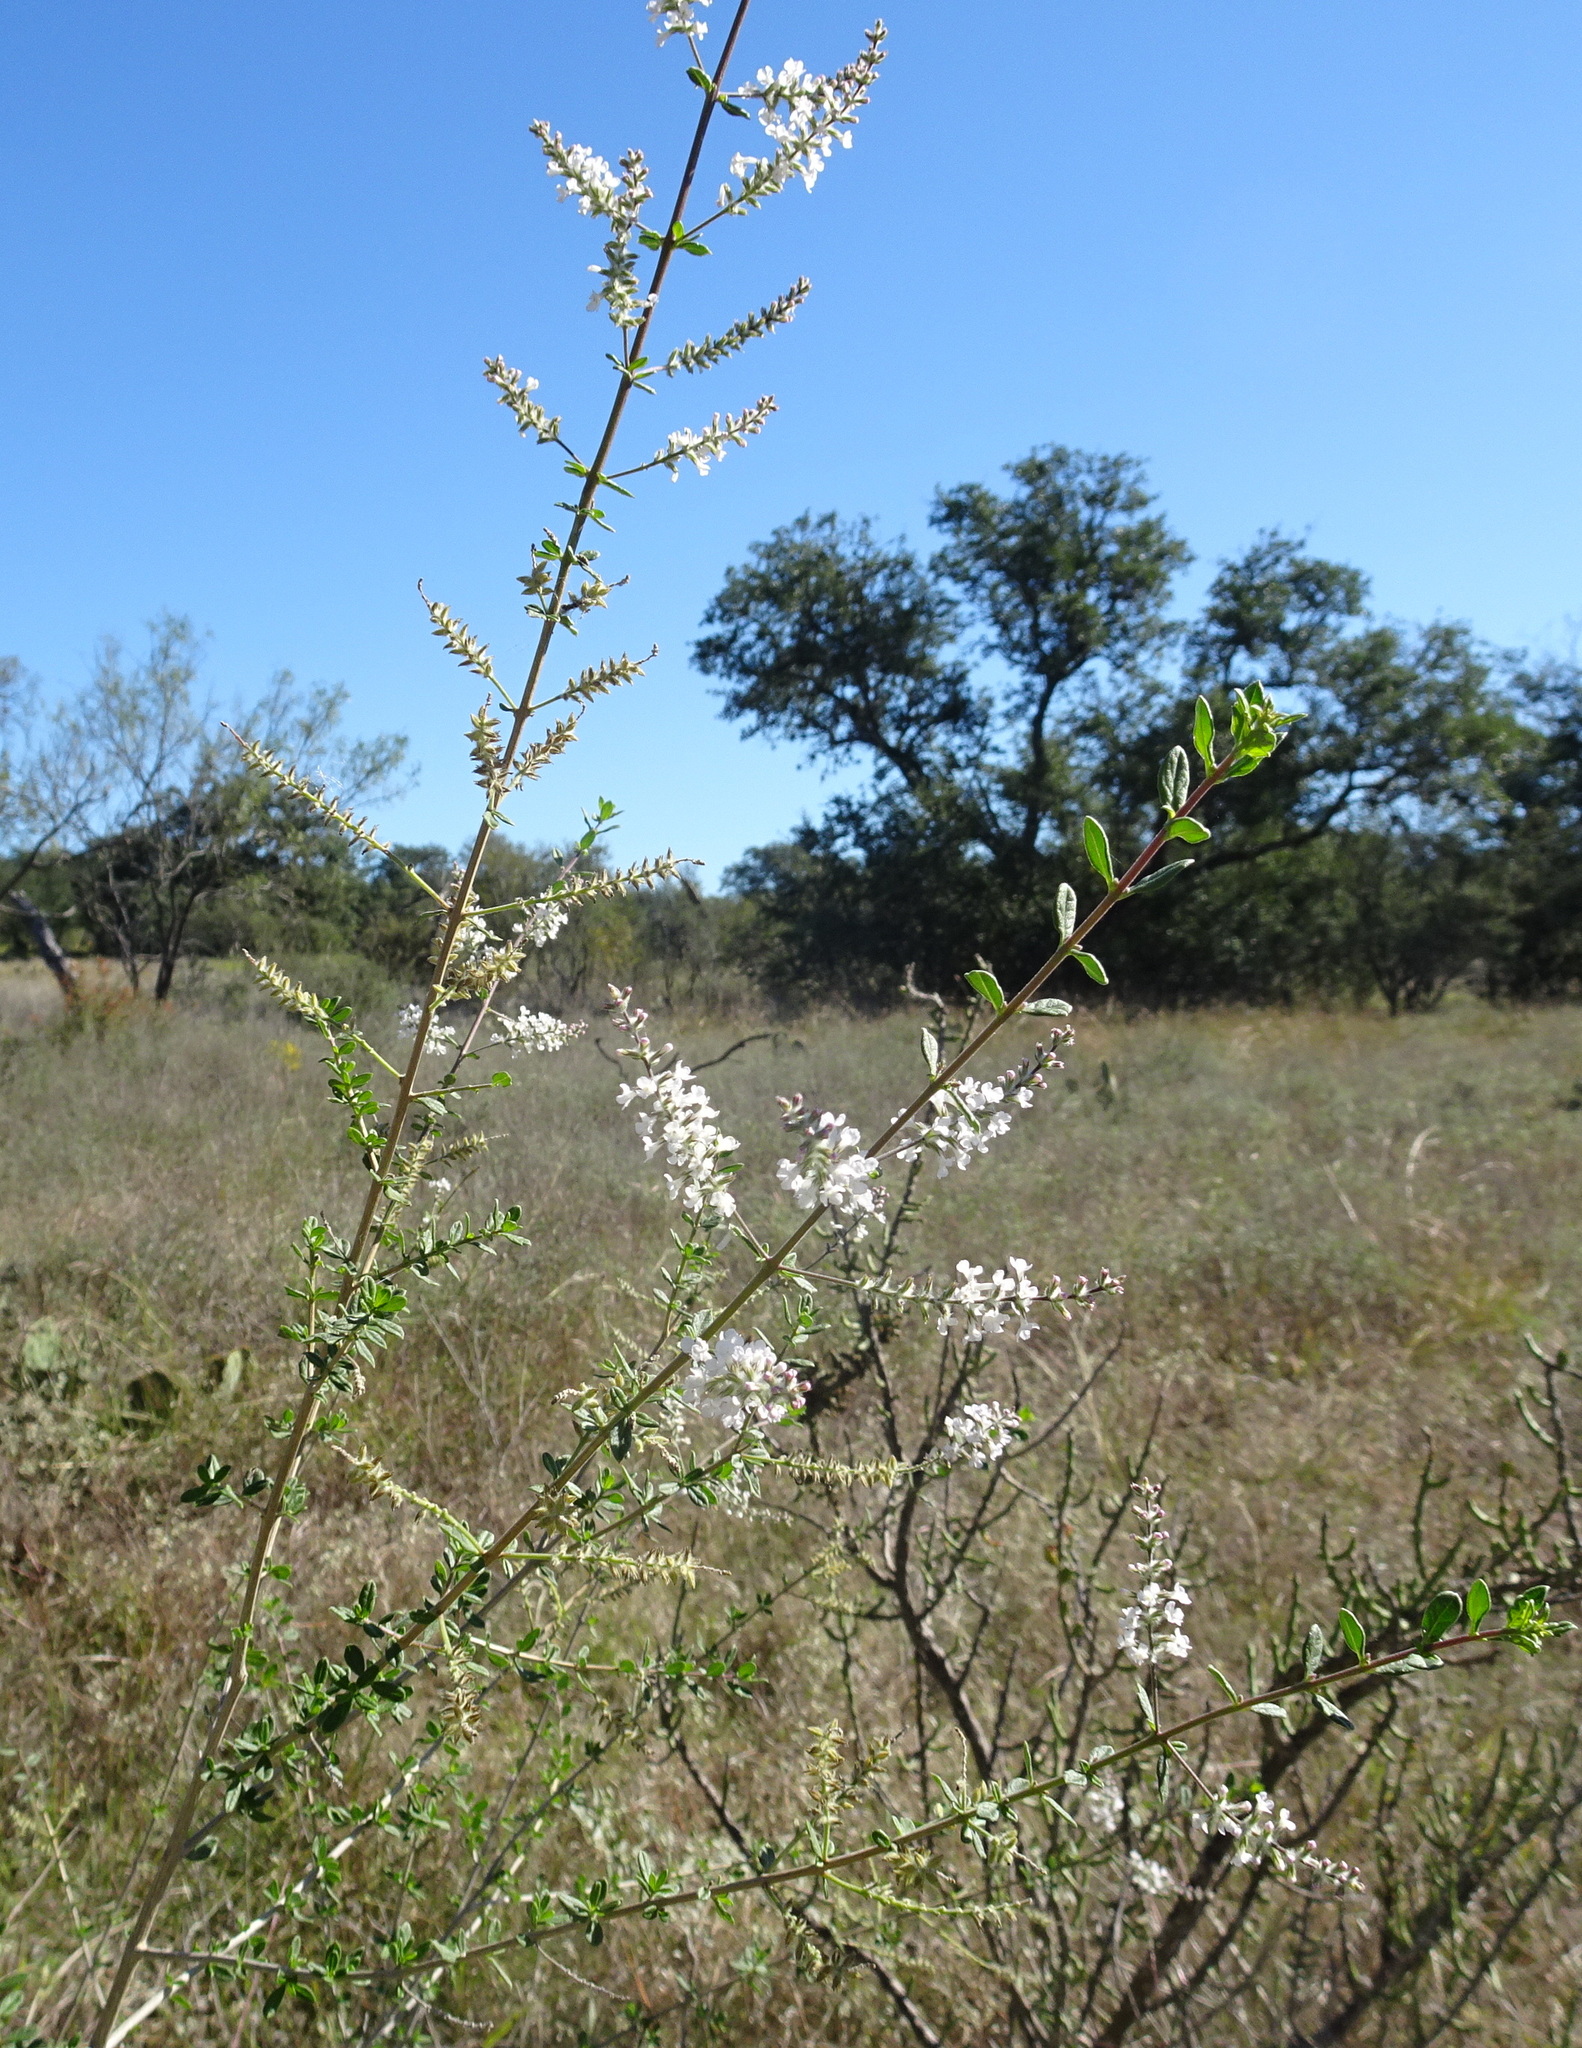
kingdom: Plantae
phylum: Tracheophyta
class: Magnoliopsida
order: Lamiales
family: Verbenaceae
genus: Aloysia
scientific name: Aloysia gratissima
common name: Common bee-brush
